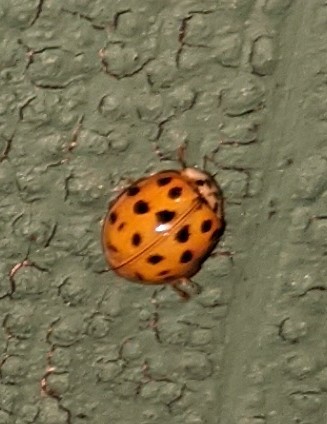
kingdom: Animalia
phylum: Arthropoda
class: Insecta
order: Coleoptera
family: Coccinellidae
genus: Harmonia
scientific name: Harmonia axyridis
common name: Harlequin ladybird
